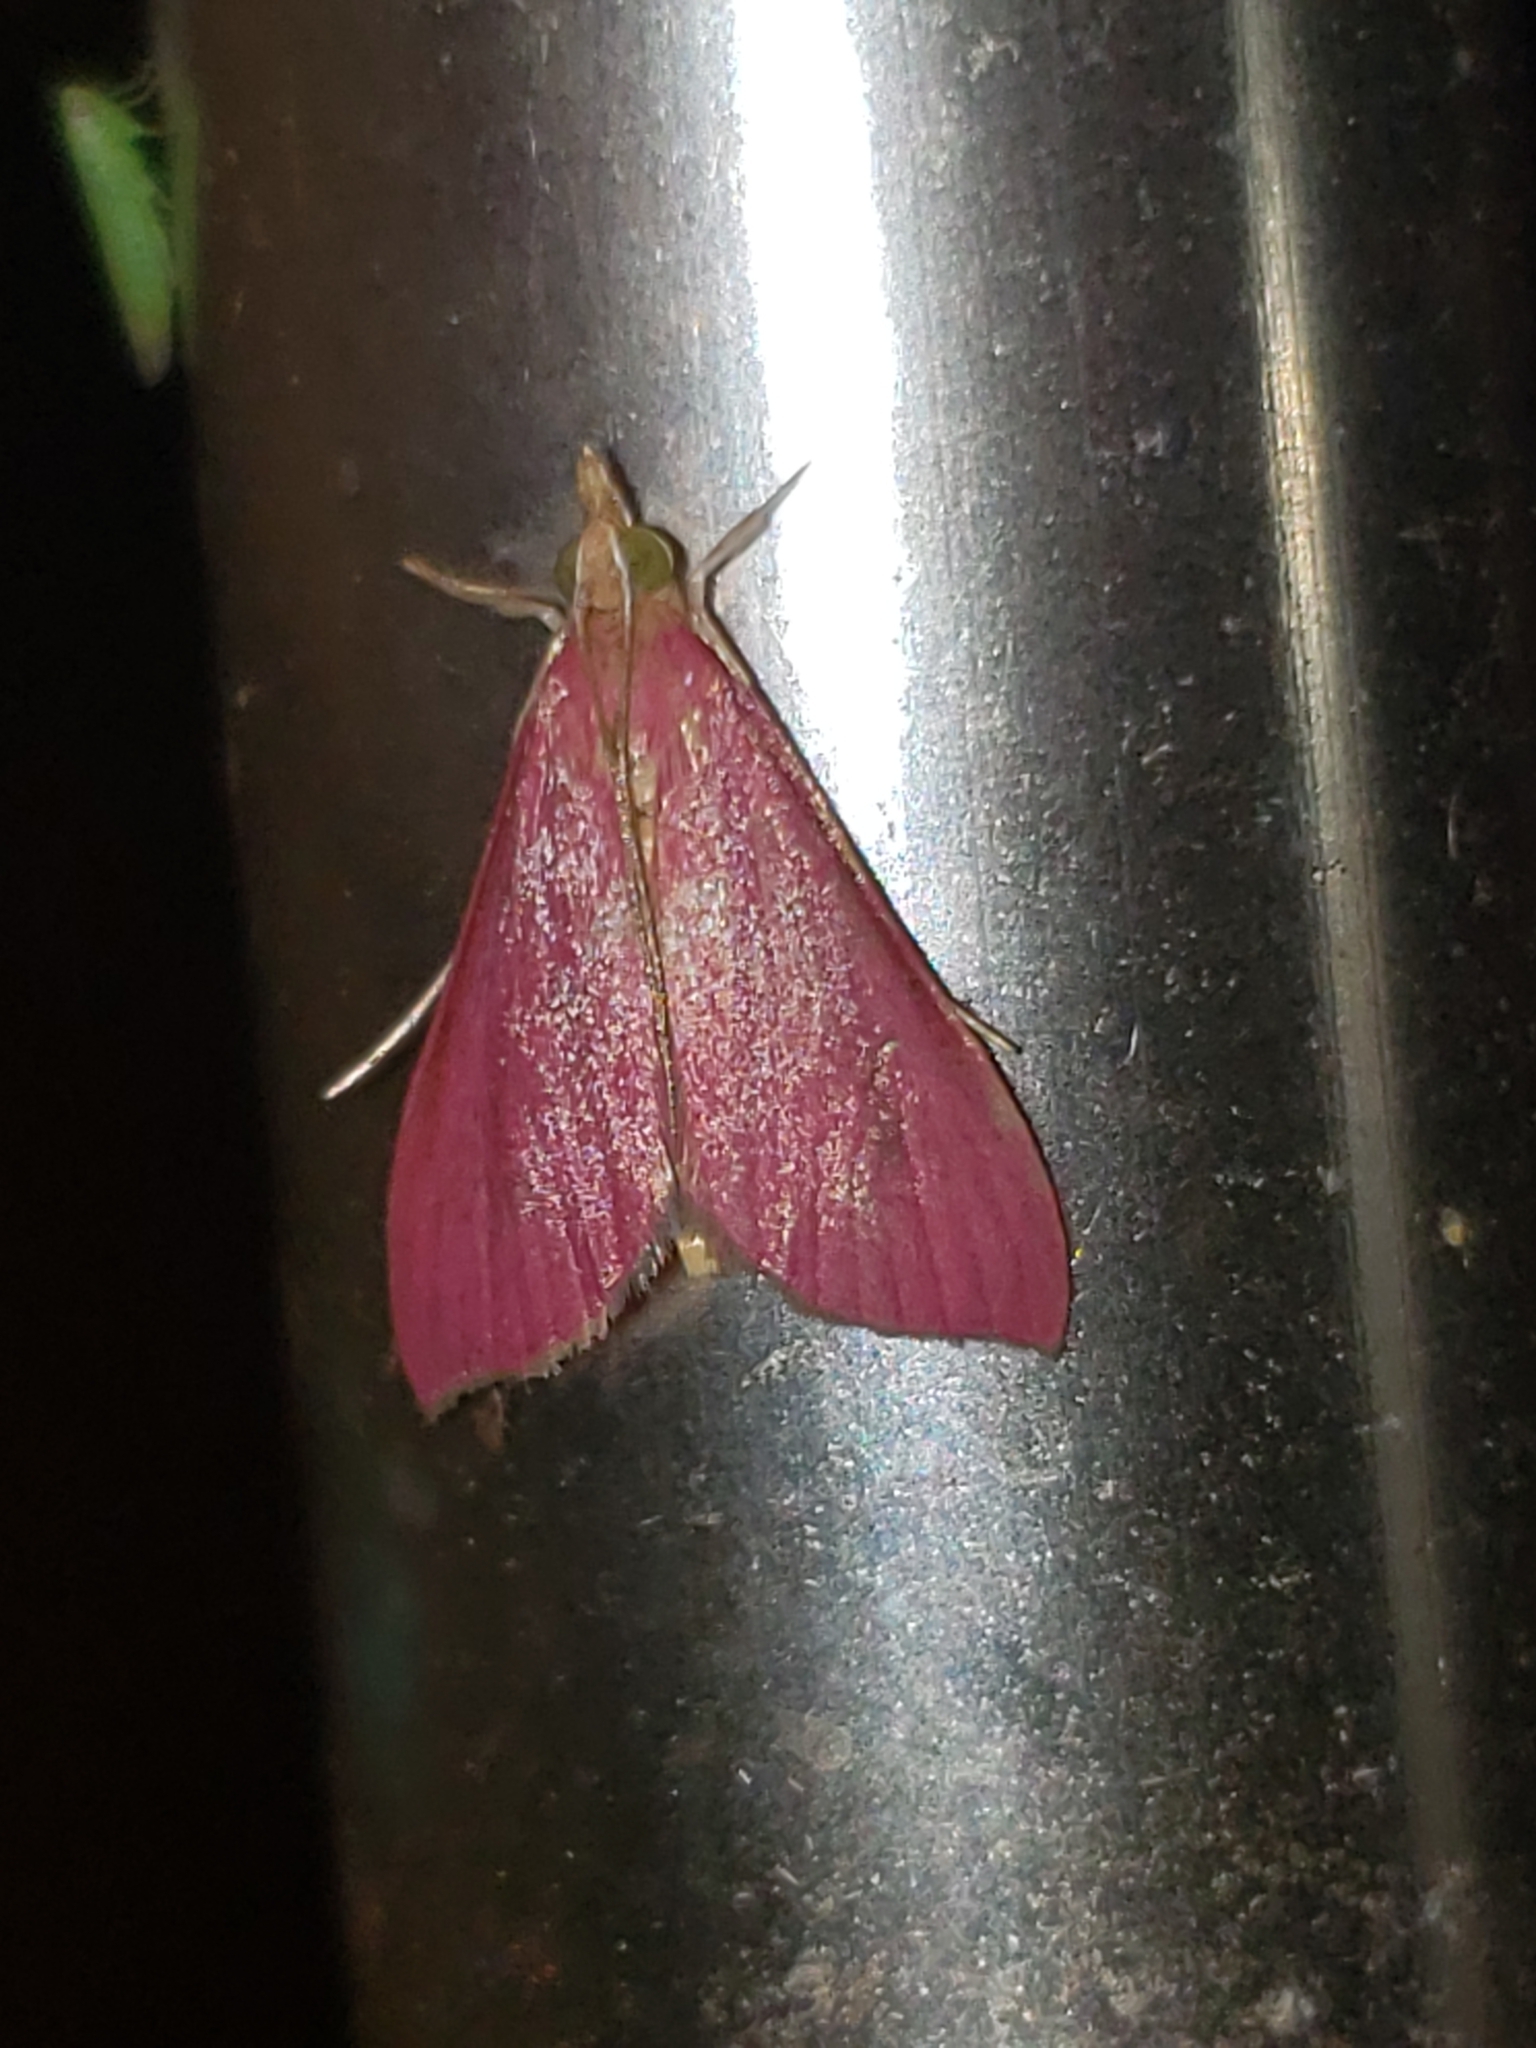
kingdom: Animalia
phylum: Arthropoda
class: Insecta
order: Lepidoptera
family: Crambidae
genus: Pyrausta
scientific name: Pyrausta inornatalis
